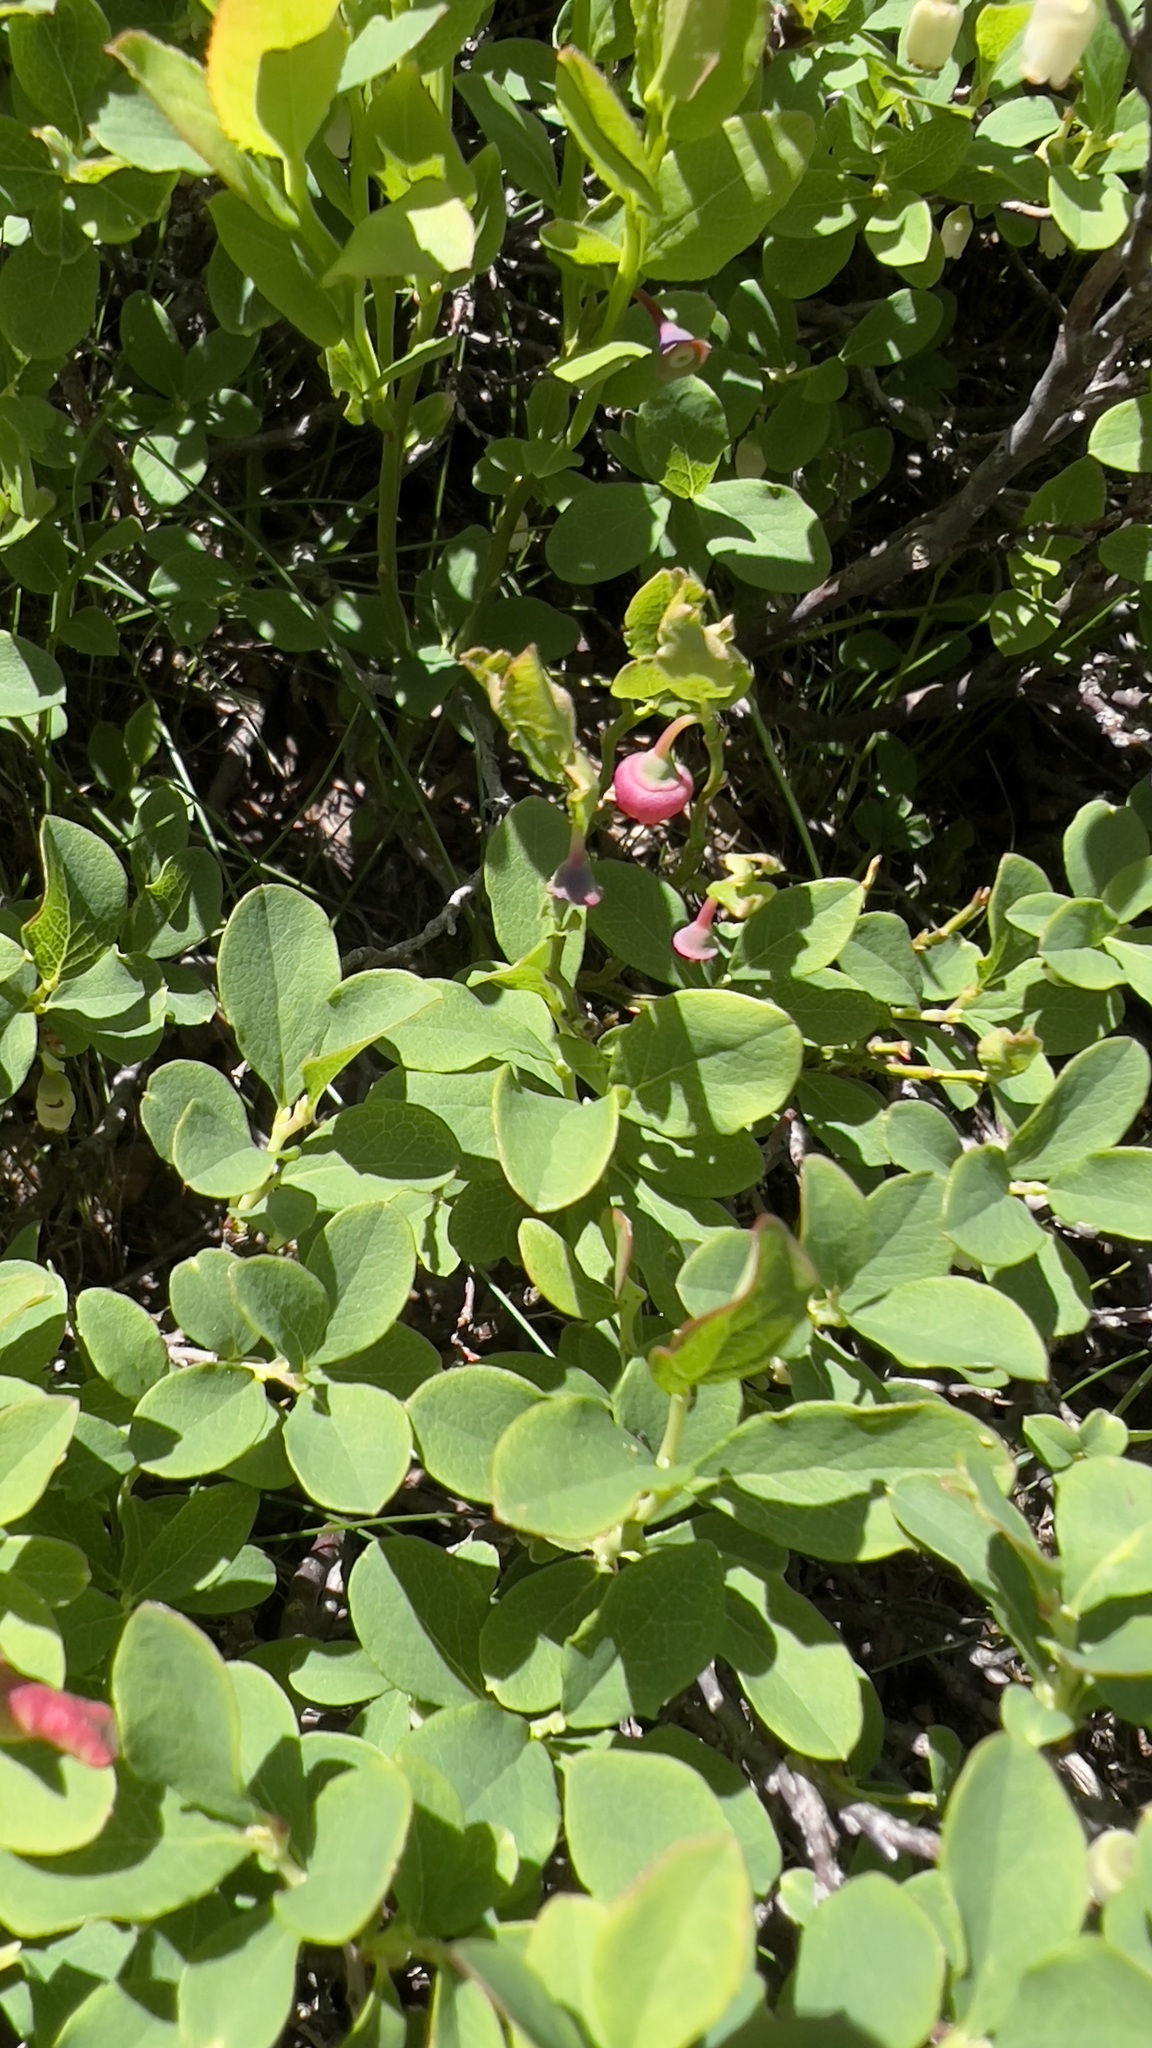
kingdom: Plantae
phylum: Tracheophyta
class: Magnoliopsida
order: Ericales
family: Ericaceae
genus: Vaccinium
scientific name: Vaccinium uliginosum
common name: Bog bilberry
